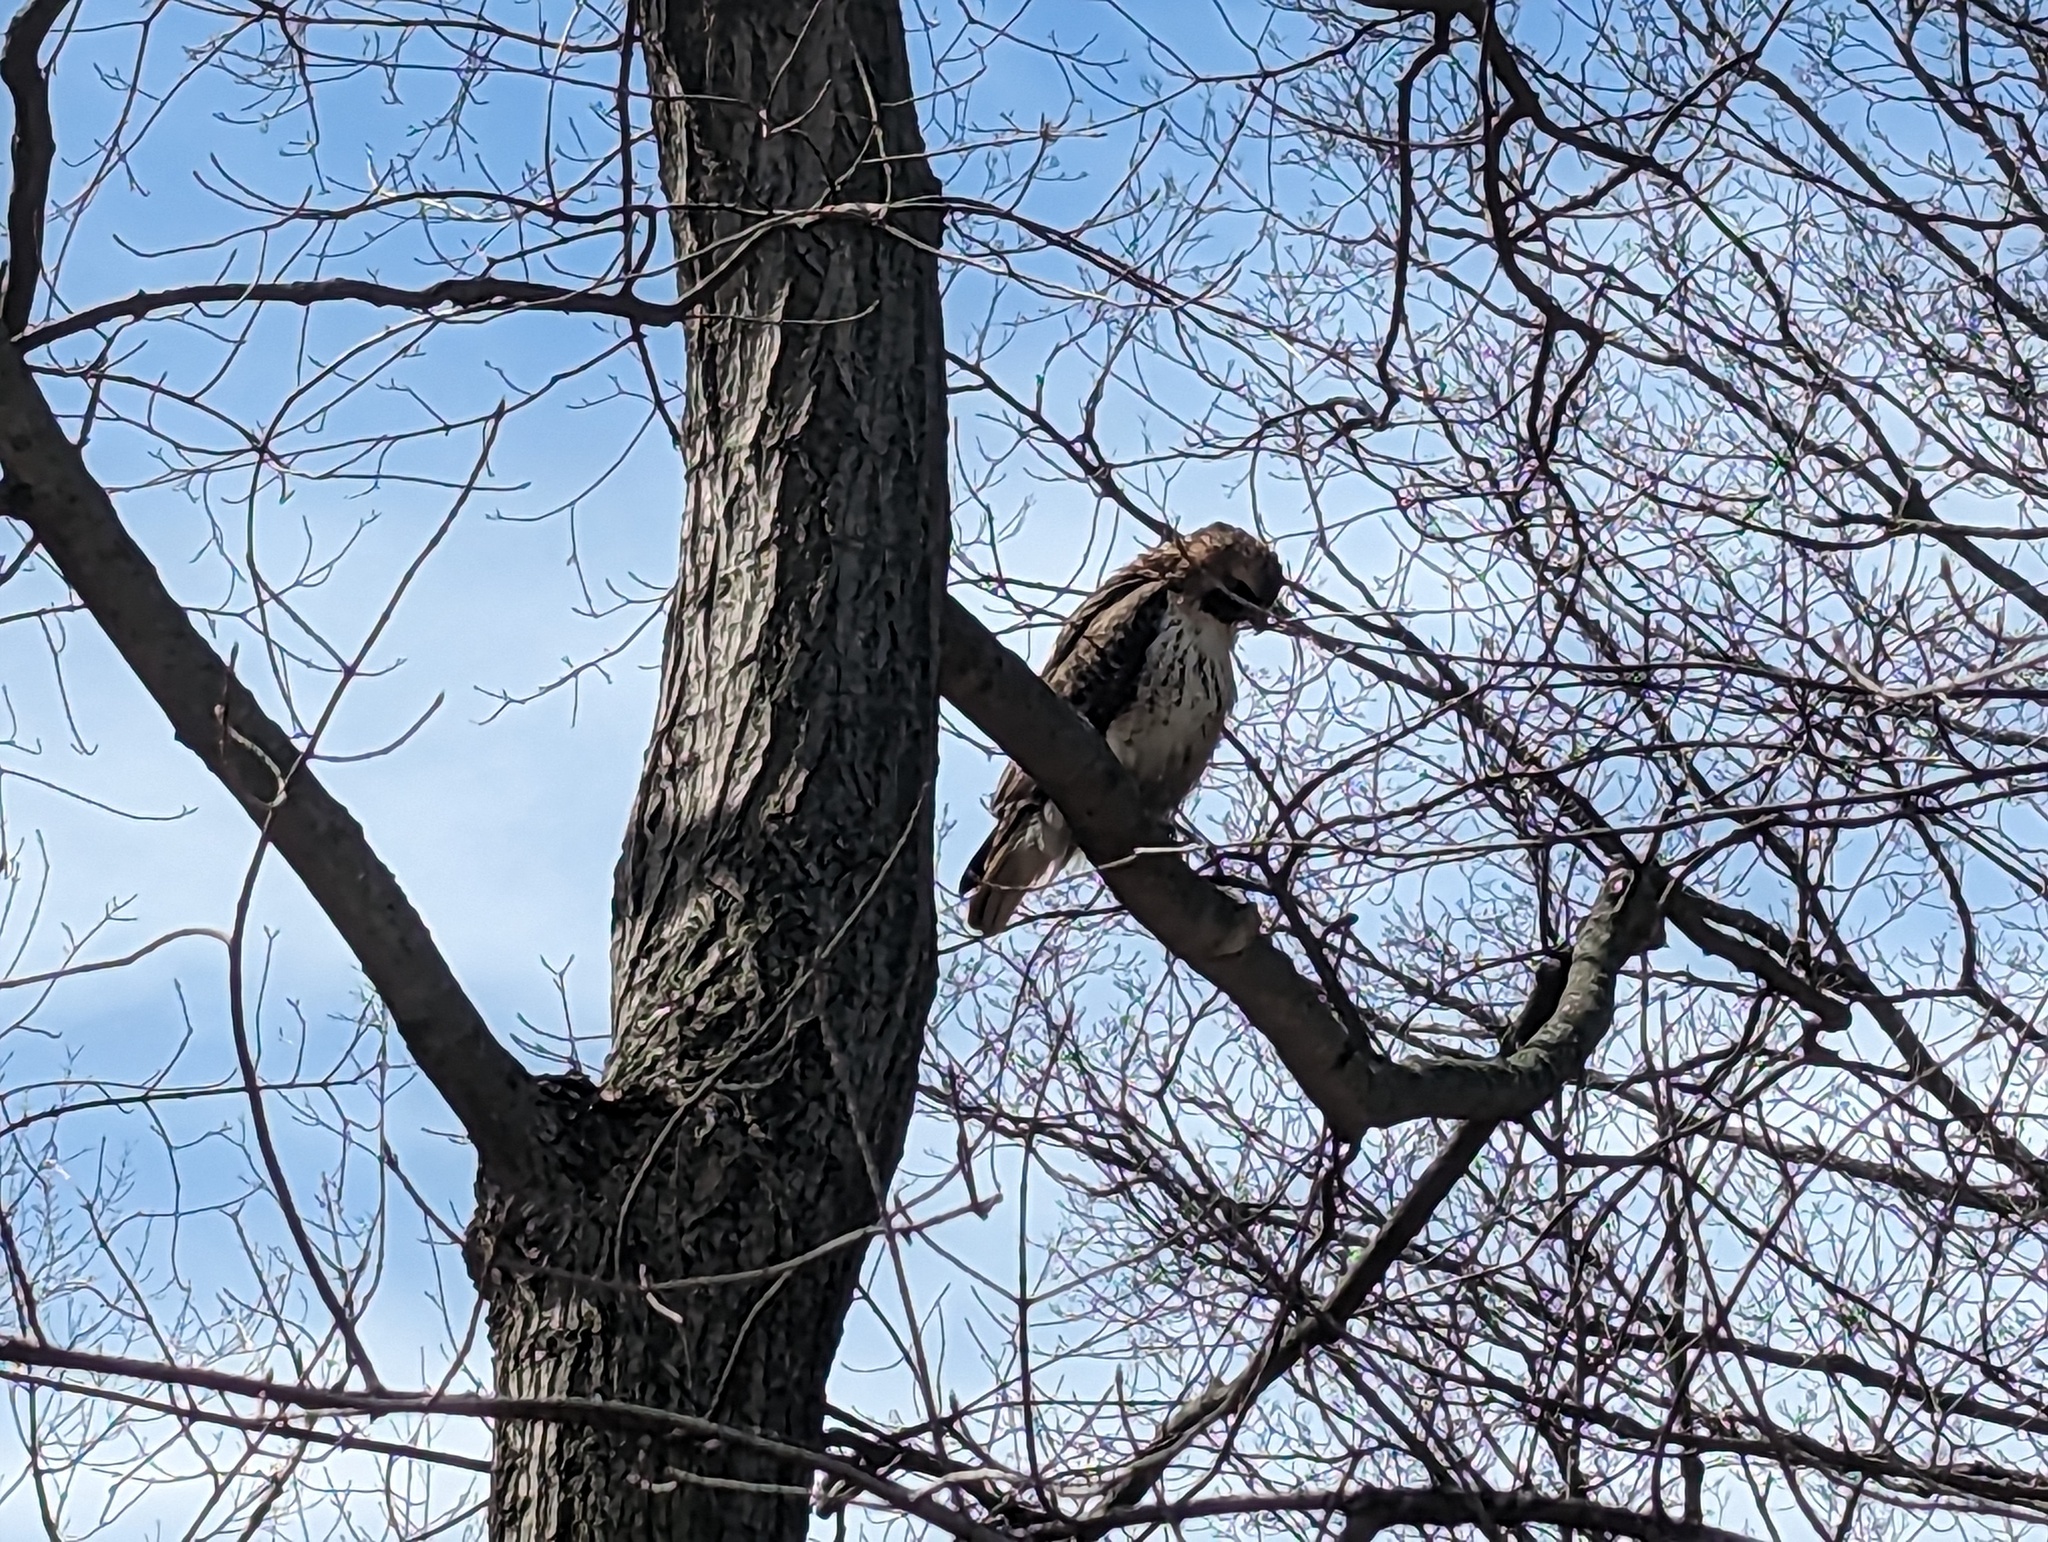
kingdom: Animalia
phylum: Chordata
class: Aves
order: Accipitriformes
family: Accipitridae
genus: Buteo
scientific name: Buteo jamaicensis
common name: Red-tailed hawk
